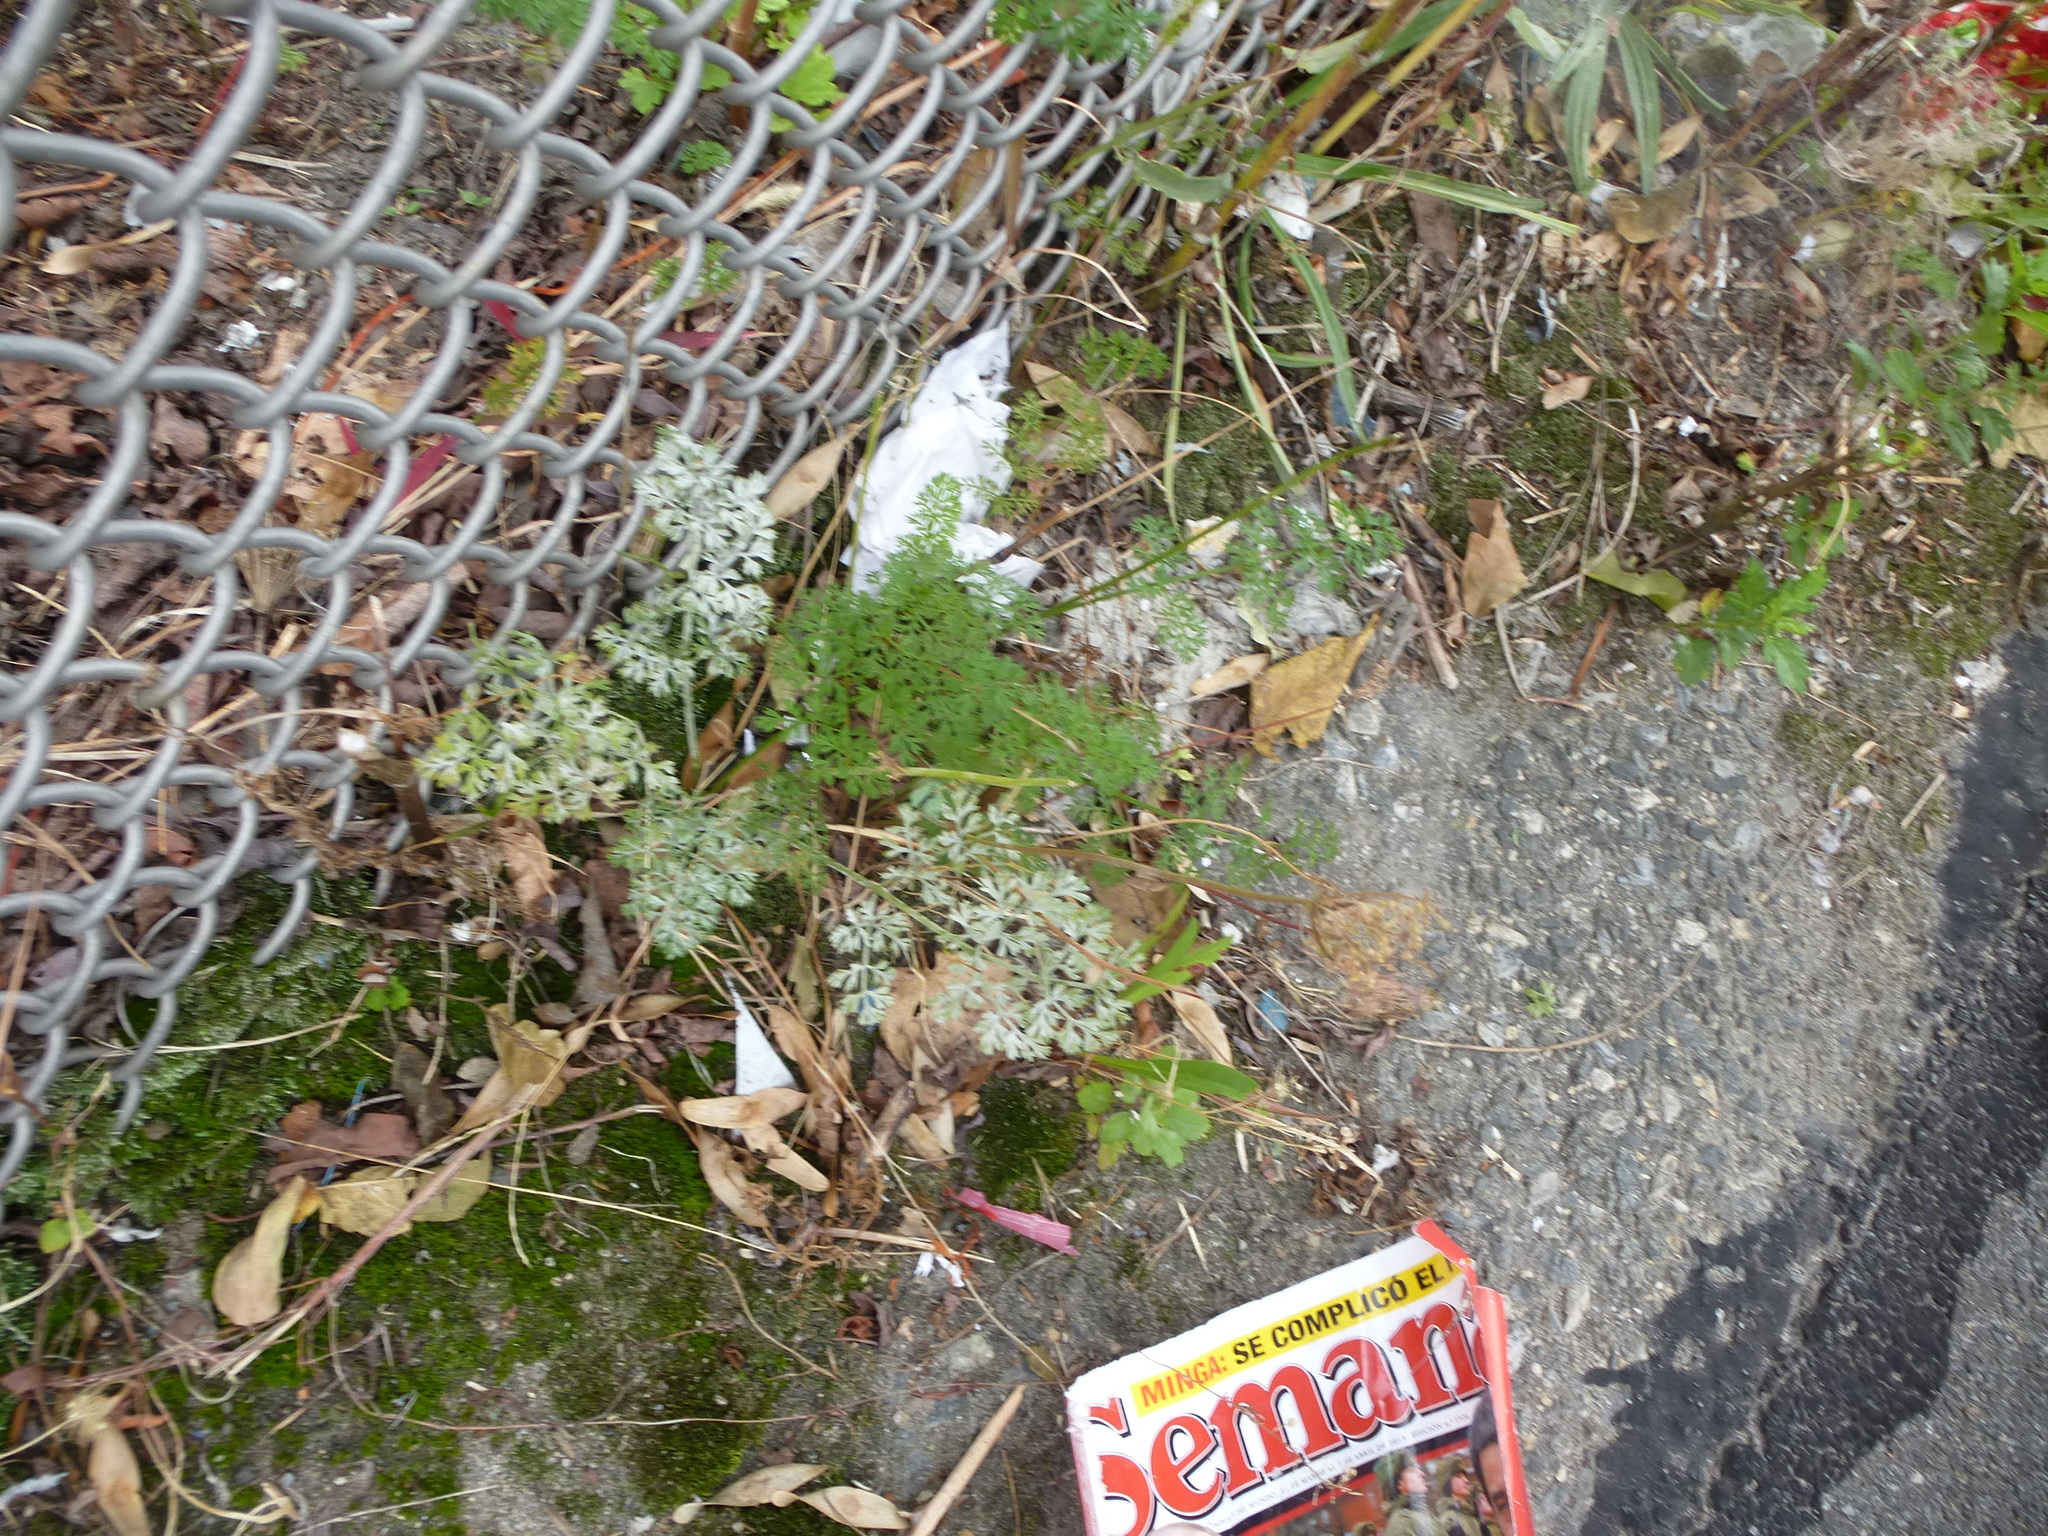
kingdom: Plantae
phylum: Tracheophyta
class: Magnoliopsida
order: Apiales
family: Apiaceae
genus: Daucus
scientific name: Daucus carota
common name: Wild carrot
